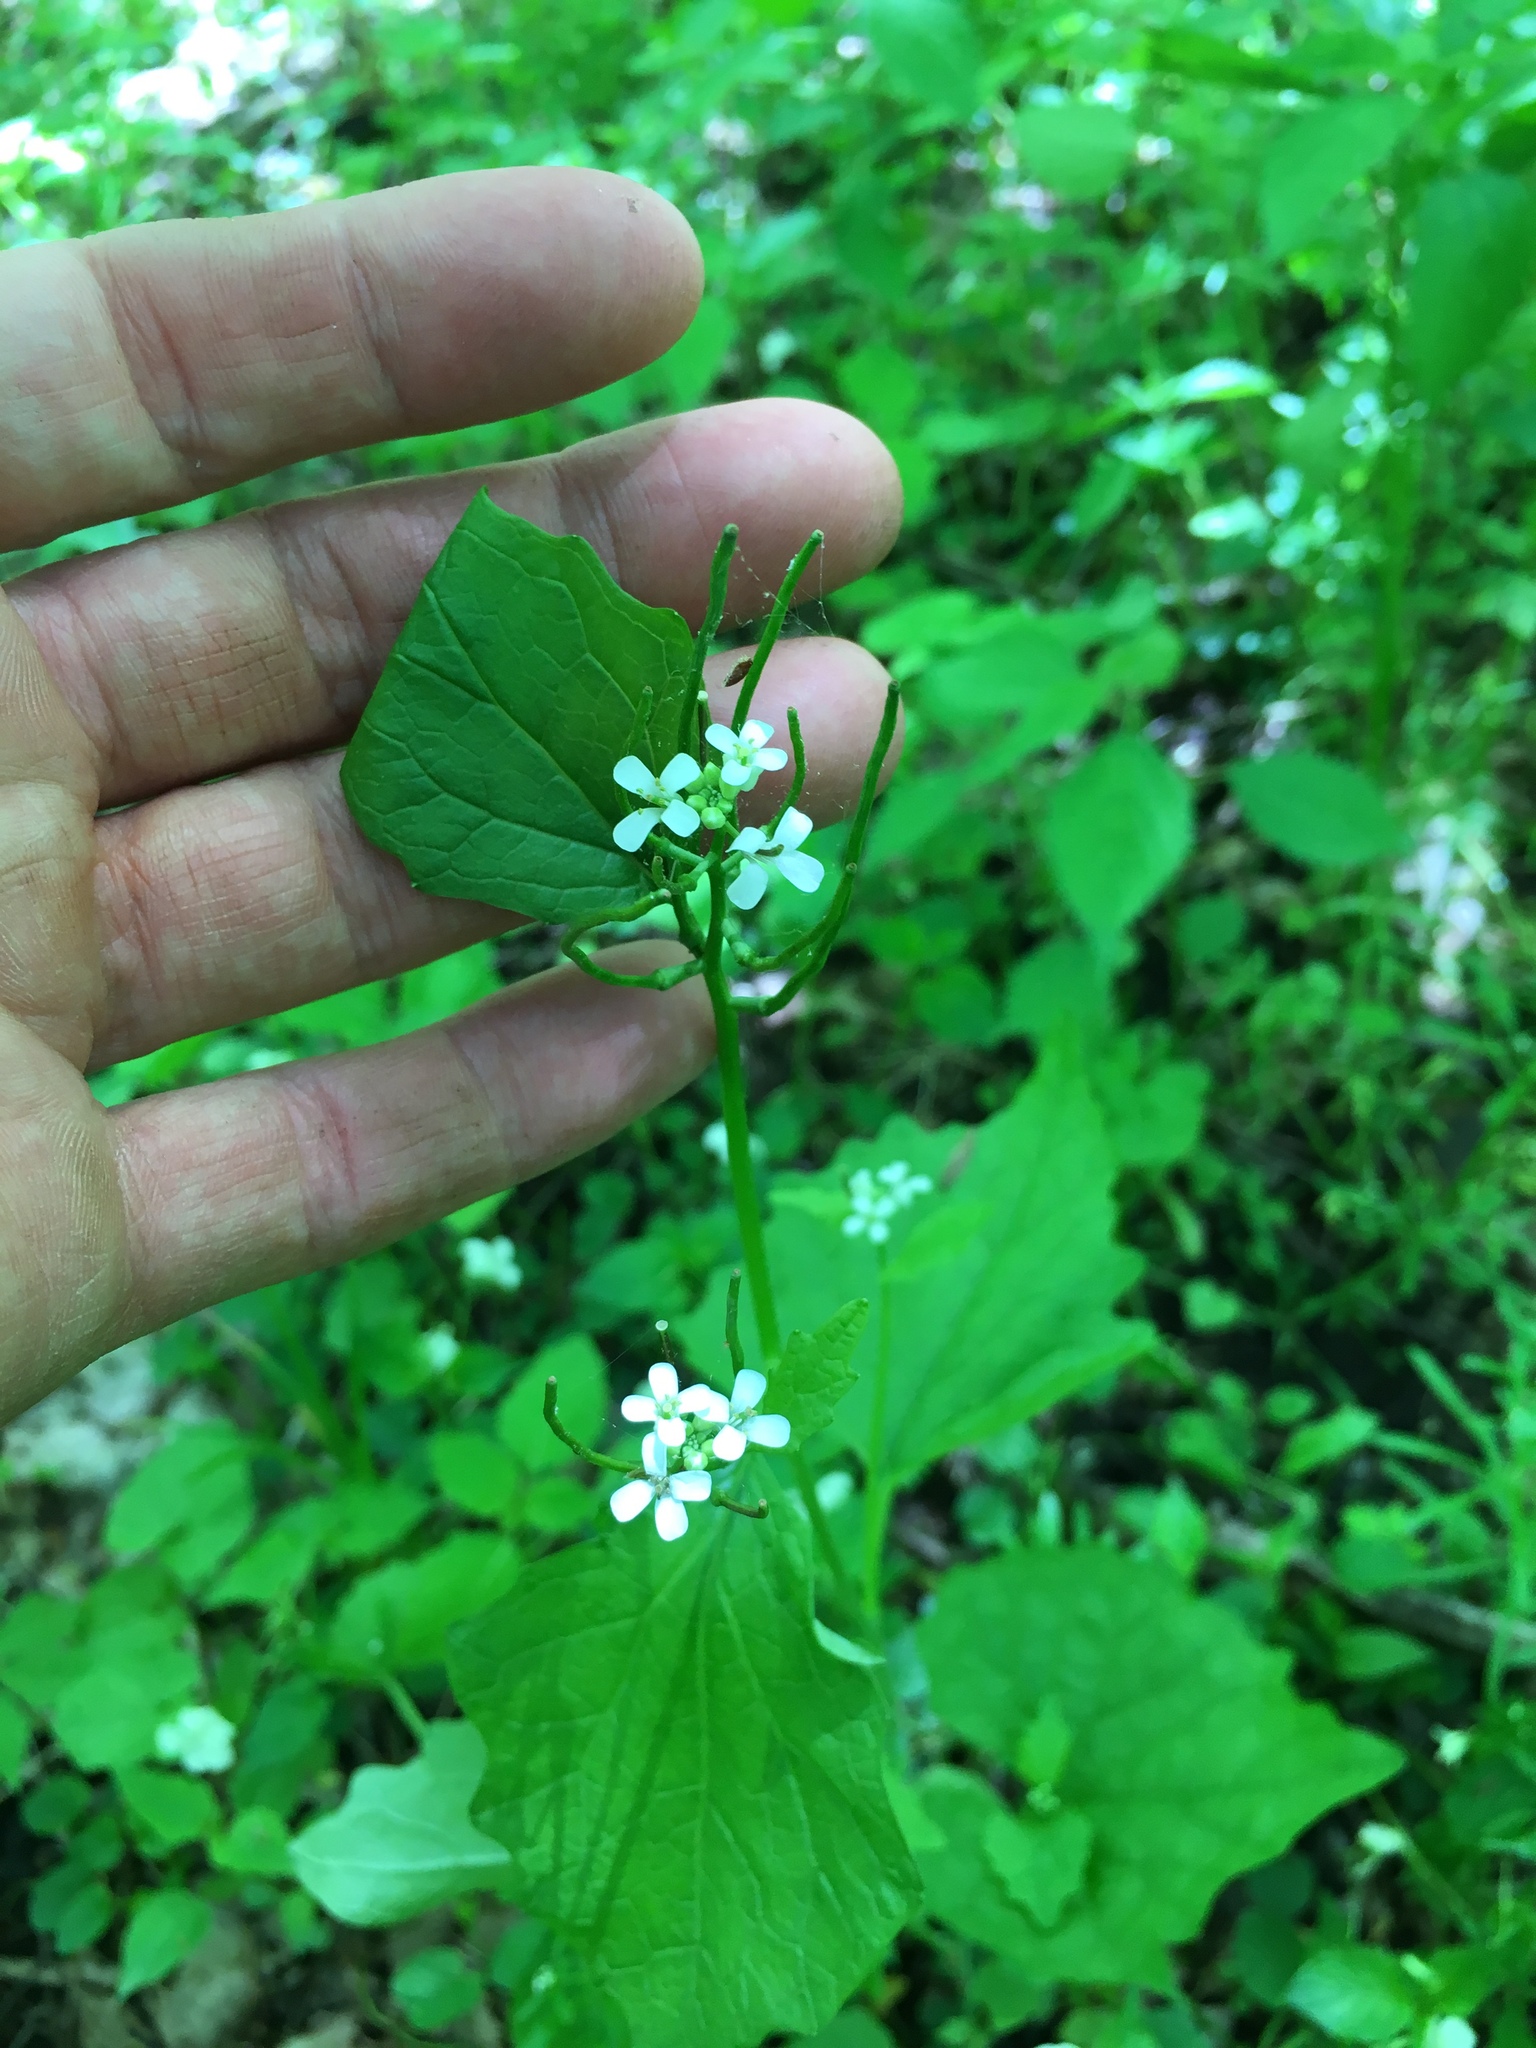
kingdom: Plantae
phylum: Tracheophyta
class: Magnoliopsida
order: Brassicales
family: Brassicaceae
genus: Alliaria
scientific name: Alliaria petiolata
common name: Garlic mustard
